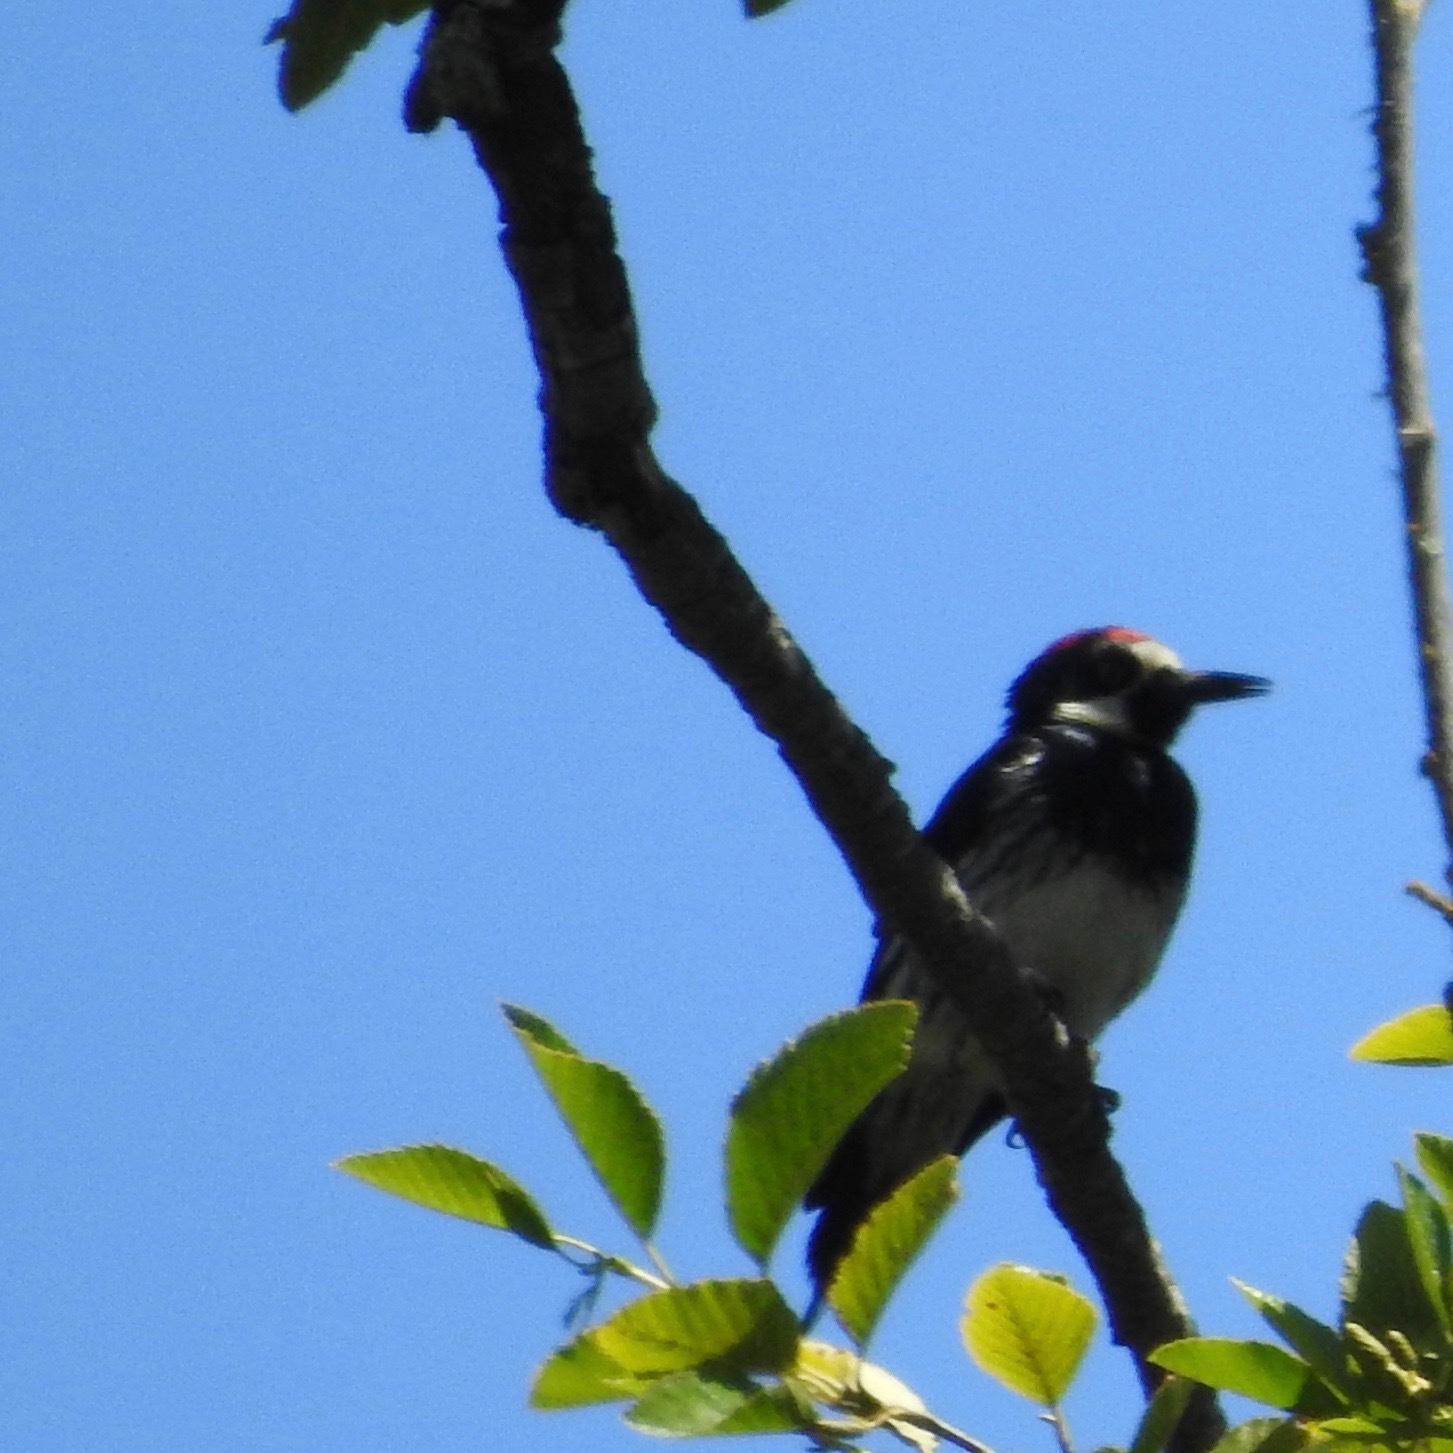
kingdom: Animalia
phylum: Chordata
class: Aves
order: Piciformes
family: Picidae
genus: Melanerpes
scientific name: Melanerpes formicivorus
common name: Acorn woodpecker
